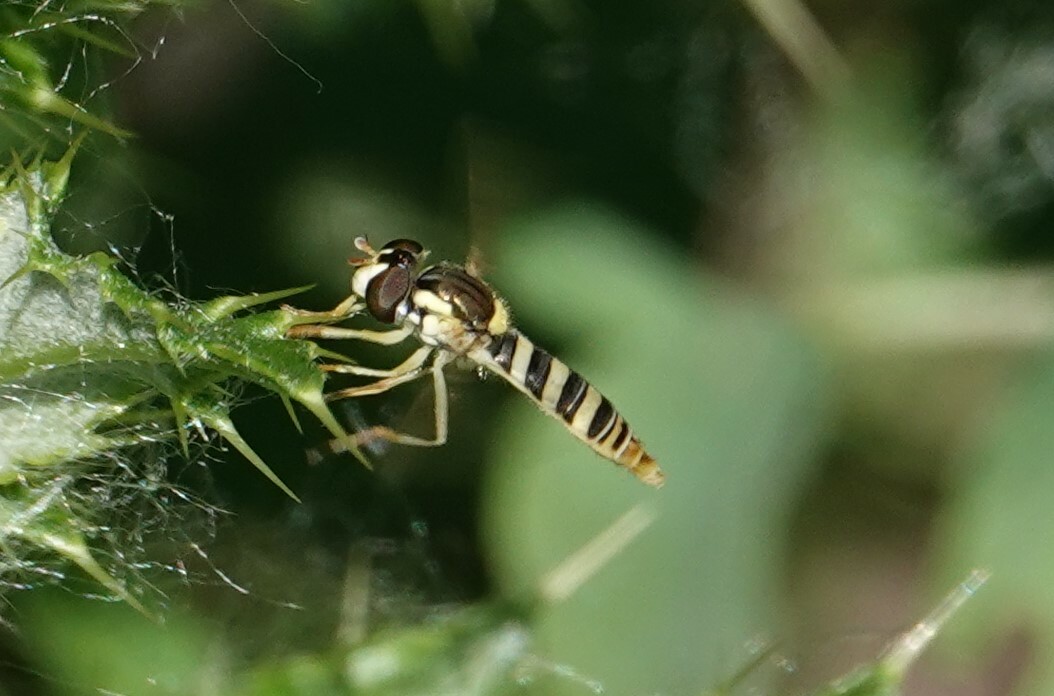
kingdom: Animalia
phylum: Arthropoda
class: Insecta
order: Diptera
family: Syrphidae
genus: Sphaerophoria
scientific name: Sphaerophoria contigua
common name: Tufted globetail
